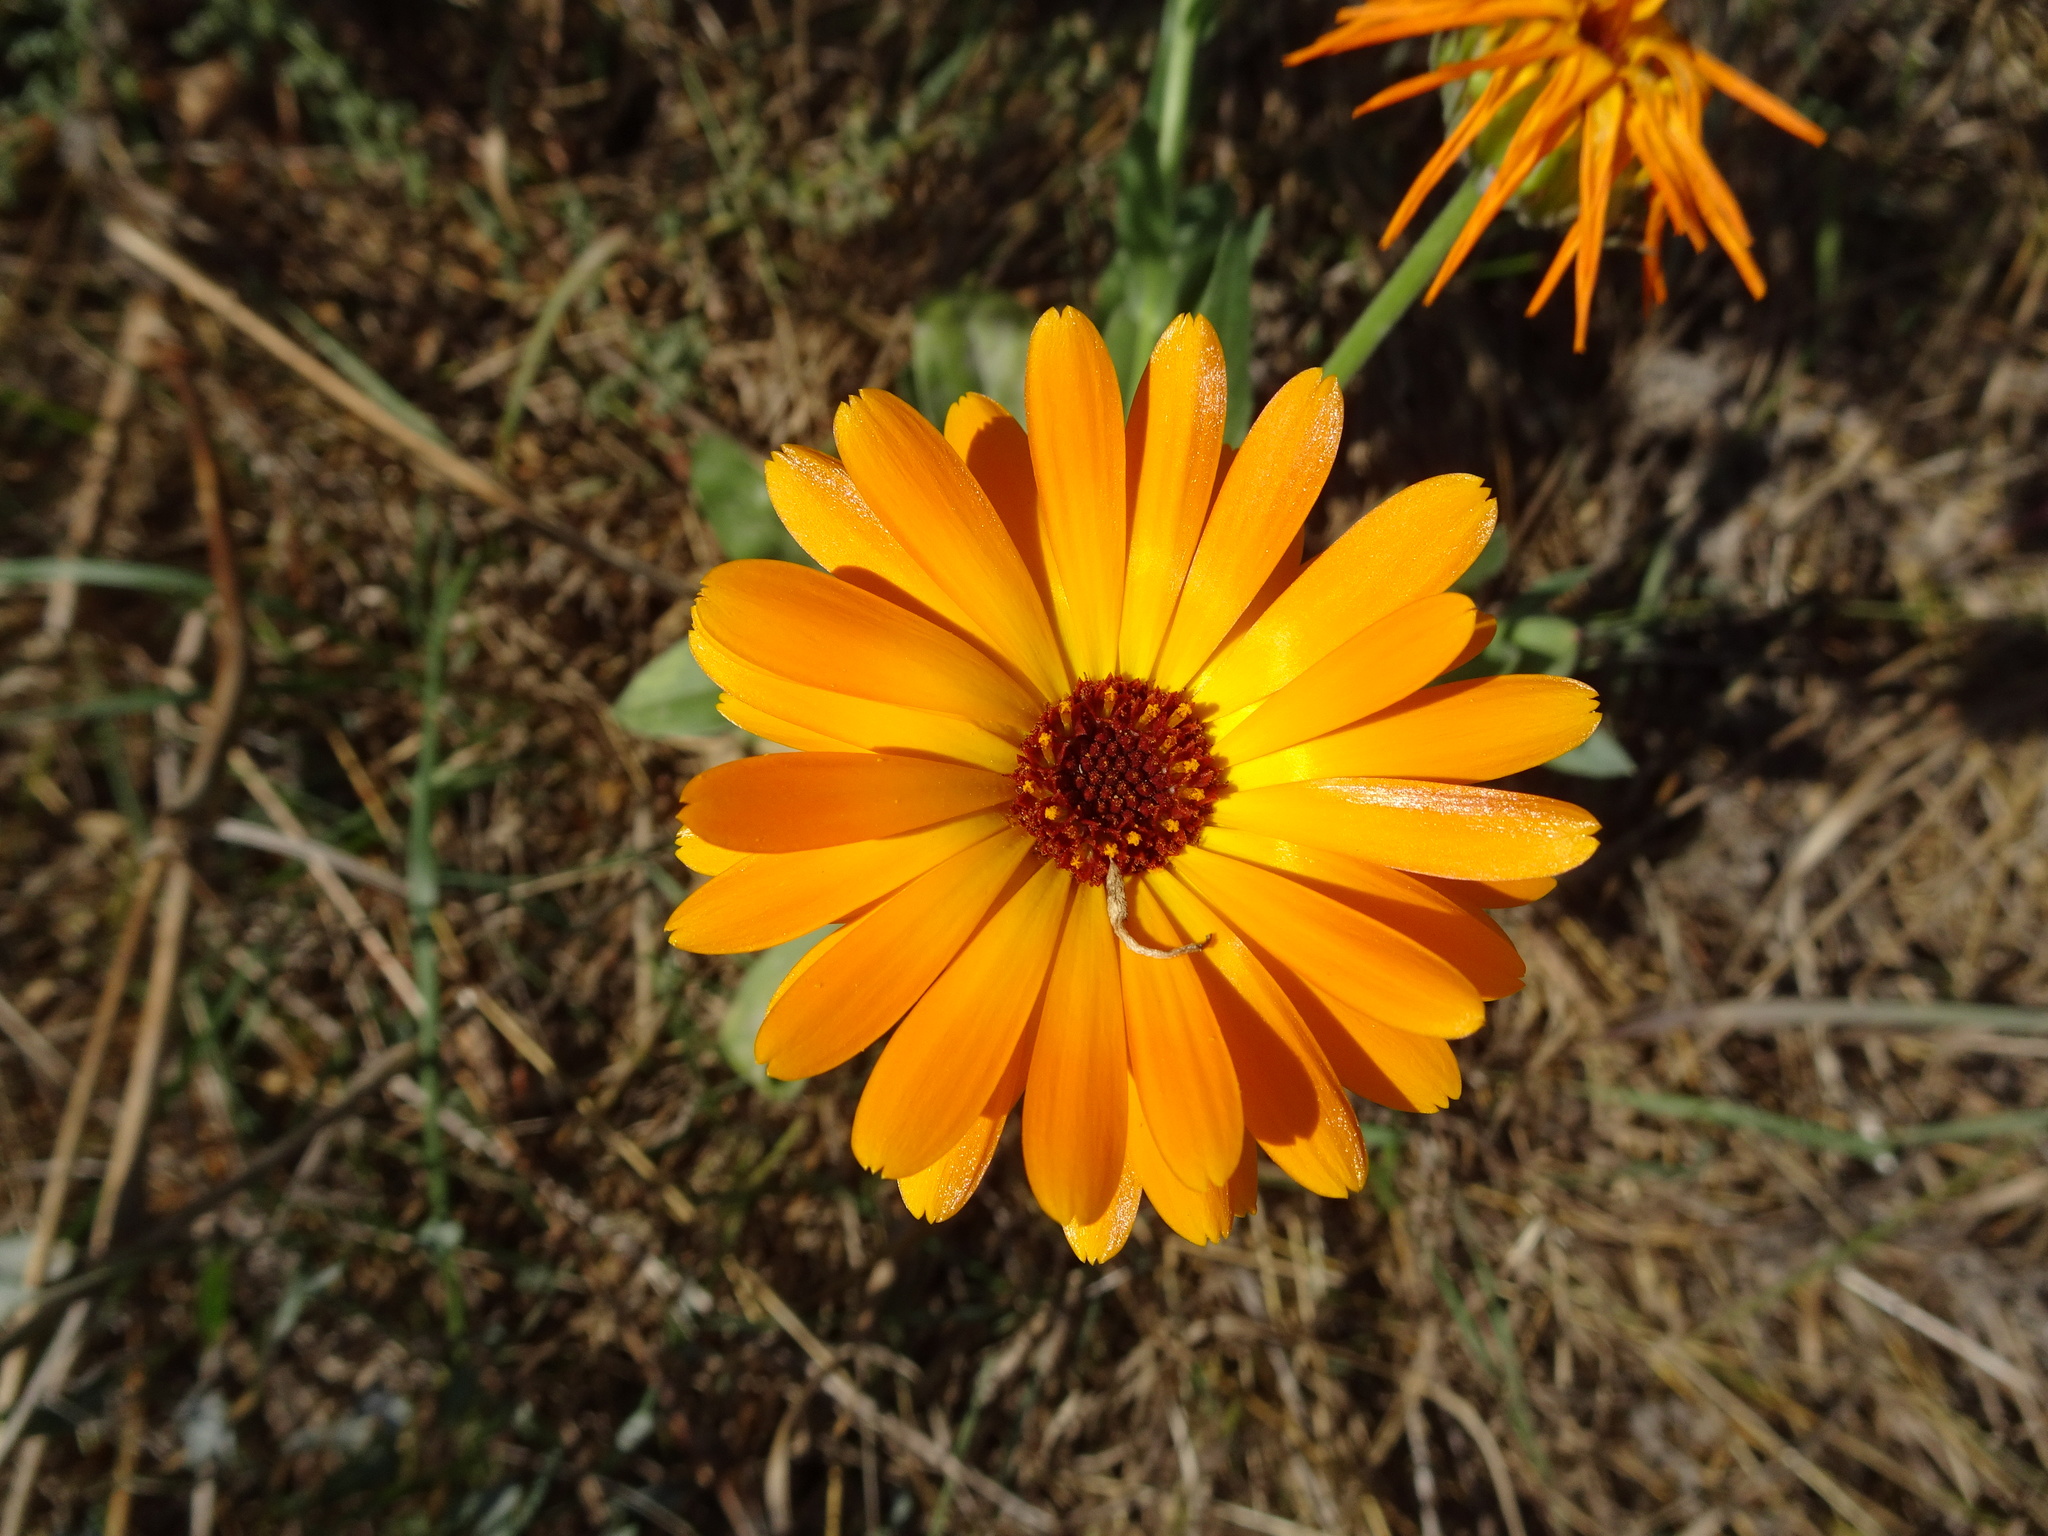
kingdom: Plantae
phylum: Tracheophyta
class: Magnoliopsida
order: Asterales
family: Asteraceae
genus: Calendula
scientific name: Calendula officinalis
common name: Pot marigold
